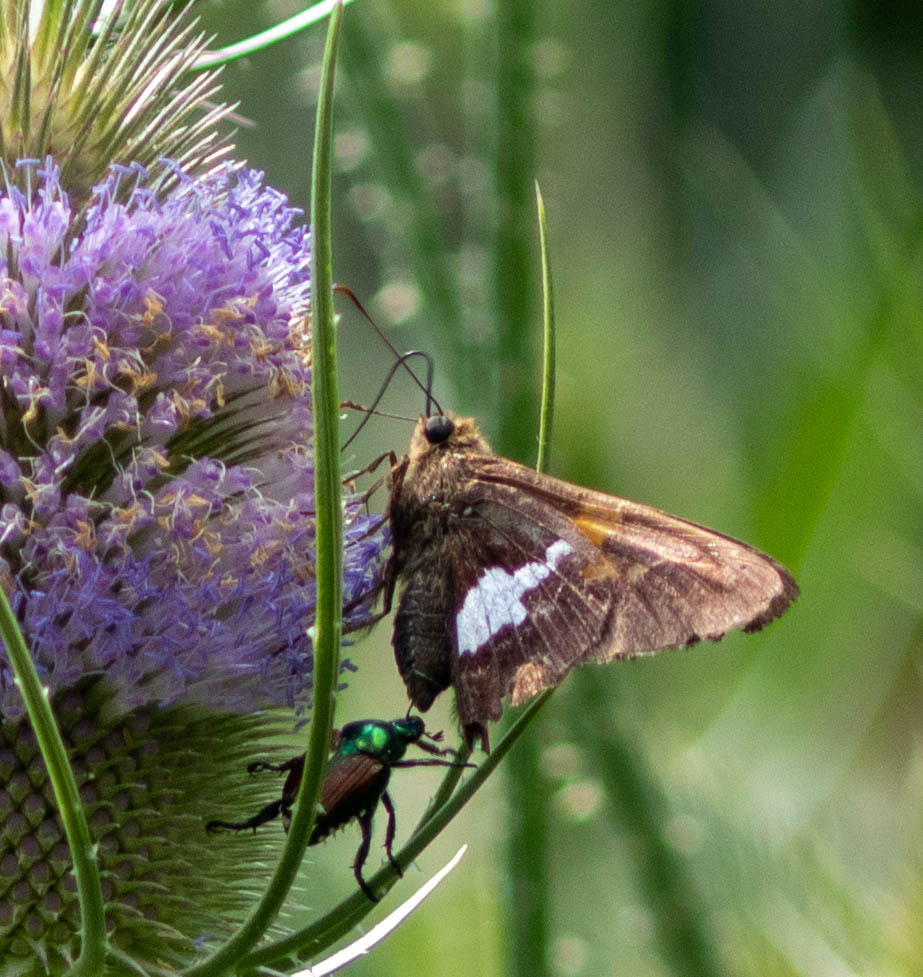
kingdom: Animalia
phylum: Arthropoda
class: Insecta
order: Lepidoptera
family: Hesperiidae
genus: Epargyreus
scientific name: Epargyreus clarus
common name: Silver-spotted skipper
